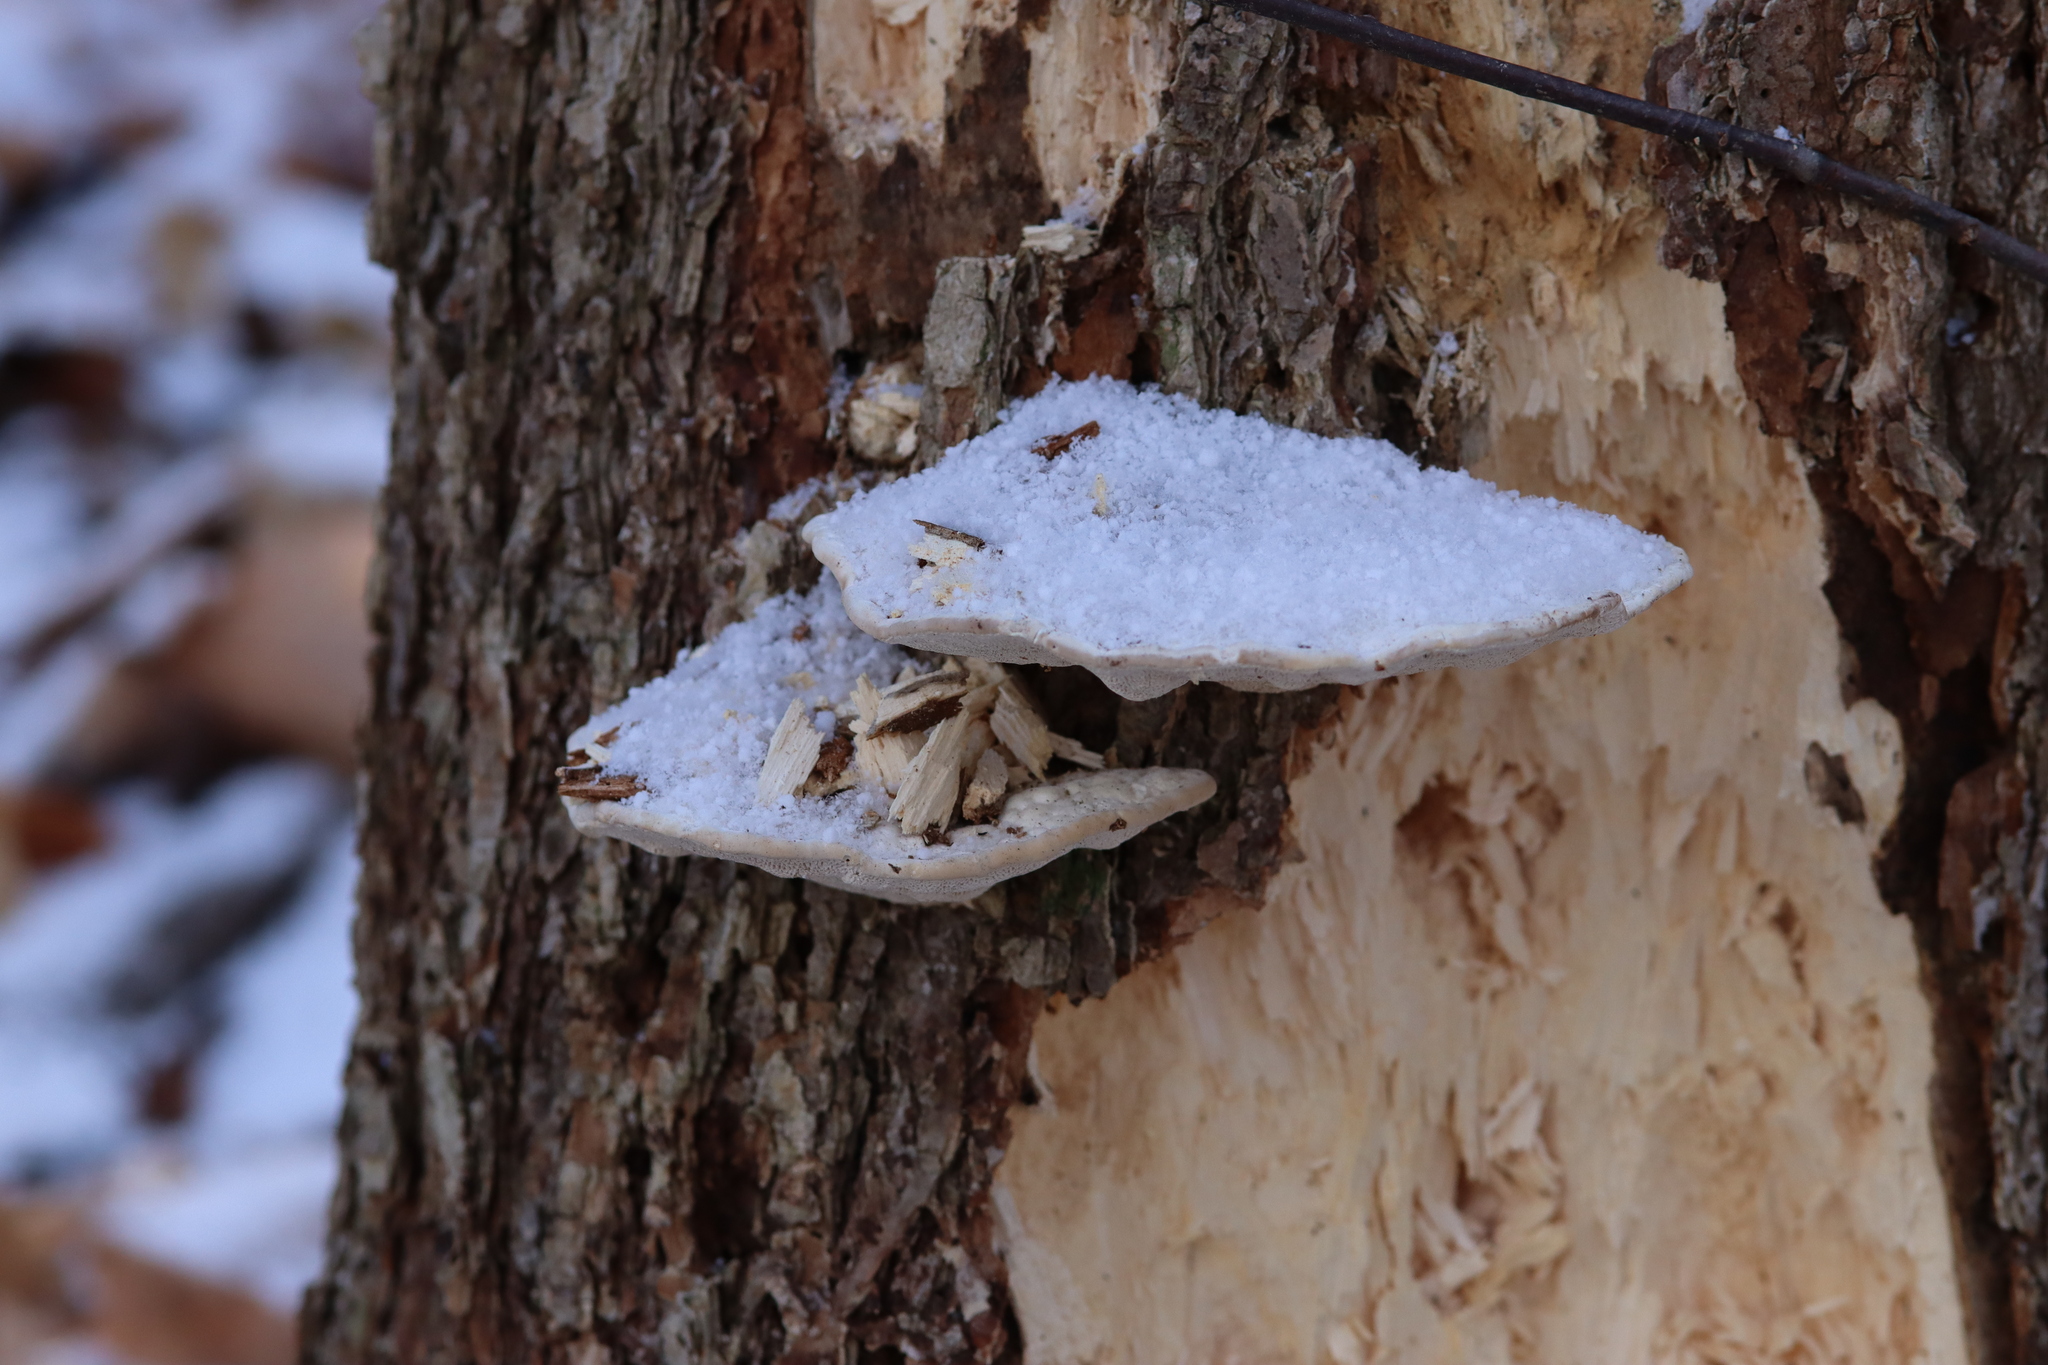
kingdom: Fungi
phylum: Basidiomycota
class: Agaricomycetes
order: Polyporales
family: Polyporaceae
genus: Trametes
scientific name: Trametes gibbosa
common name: Lumpy bracket
